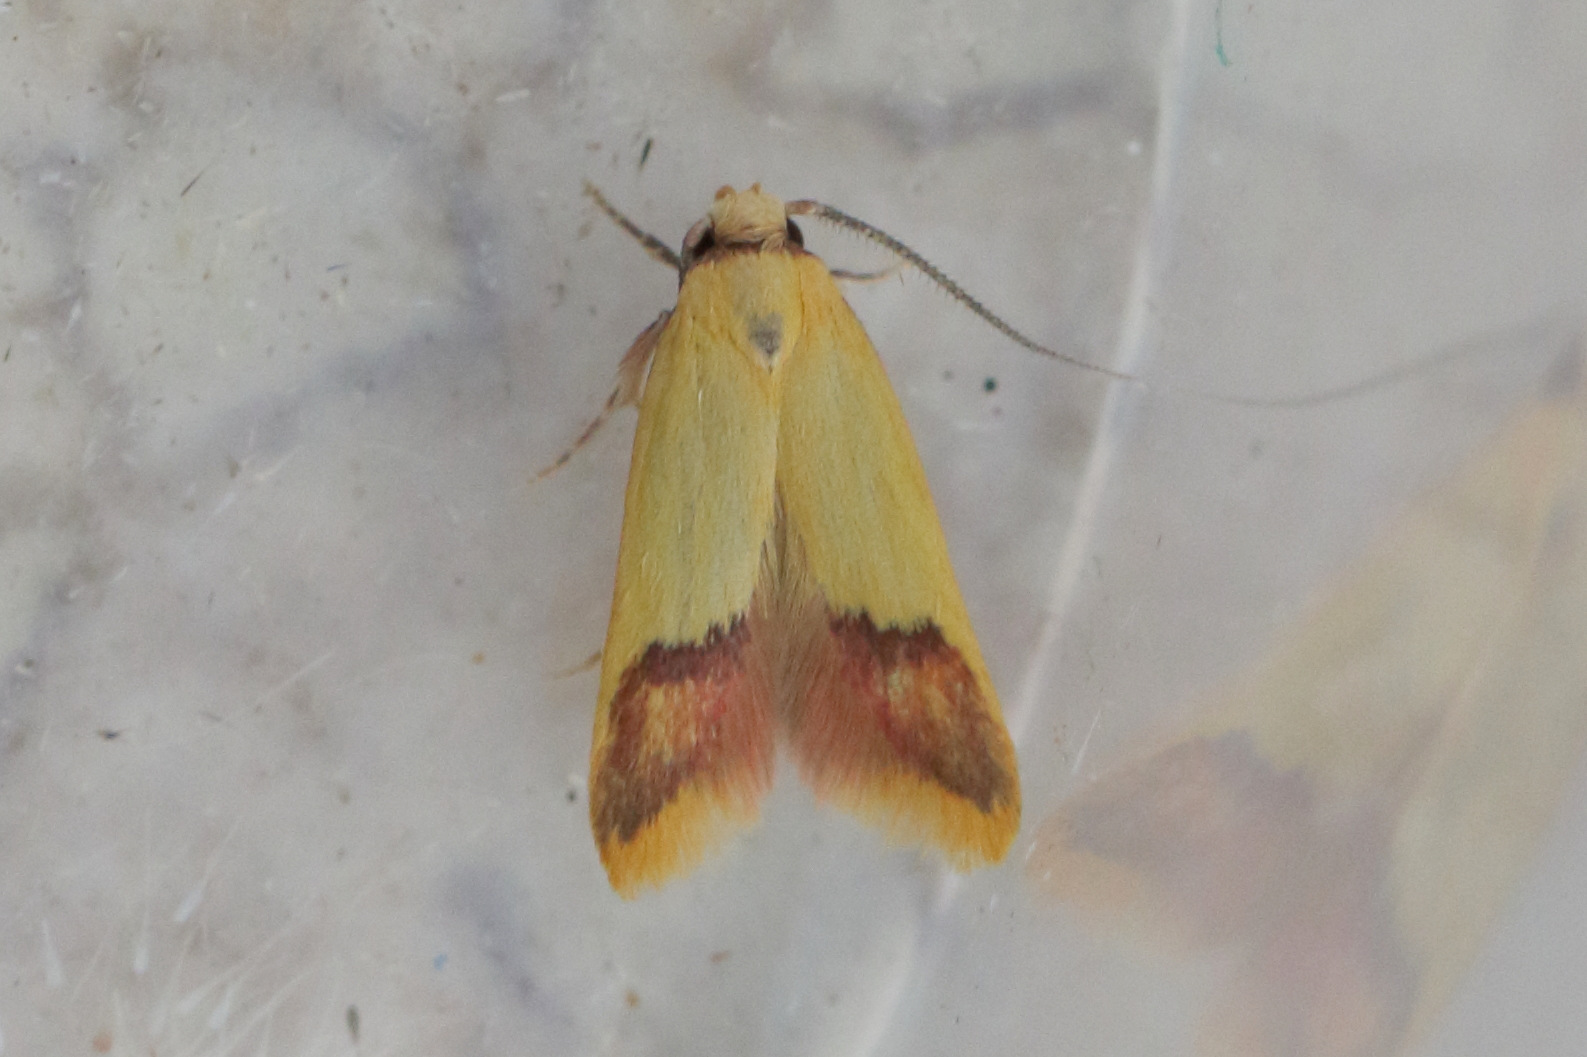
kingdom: Animalia
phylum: Arthropoda
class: Insecta
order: Lepidoptera
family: Oecophoridae
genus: Tachystola
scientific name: Tachystola thiasotis
